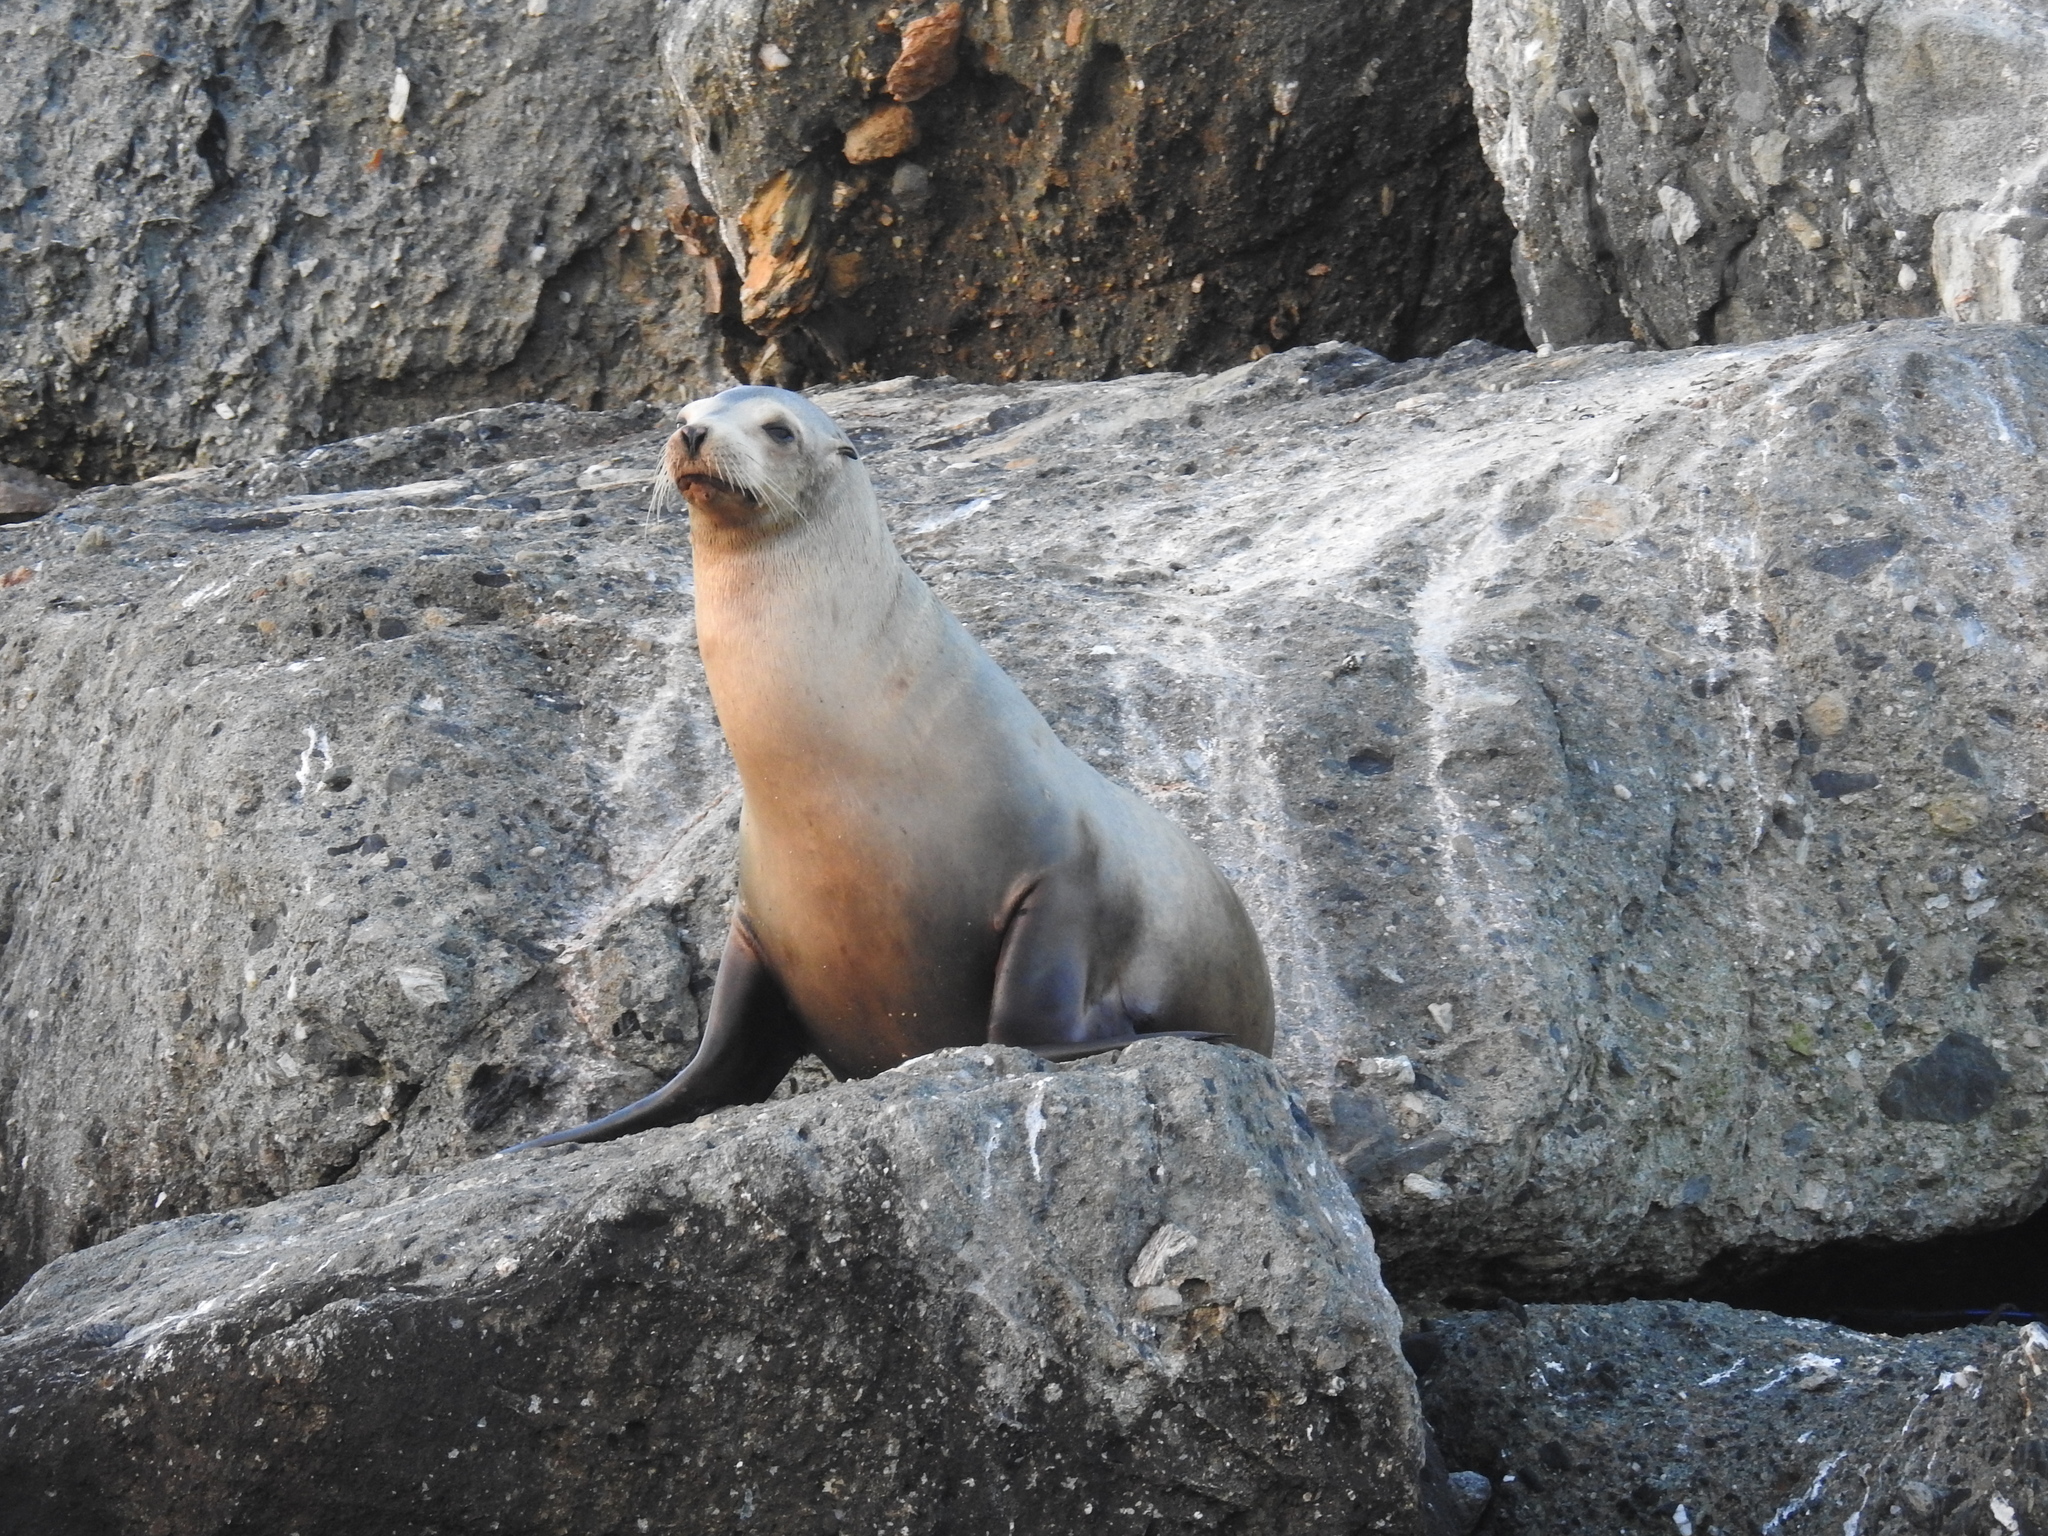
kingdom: Animalia
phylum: Chordata
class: Mammalia
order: Carnivora
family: Otariidae
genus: Zalophus
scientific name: Zalophus californianus
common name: California sea lion
